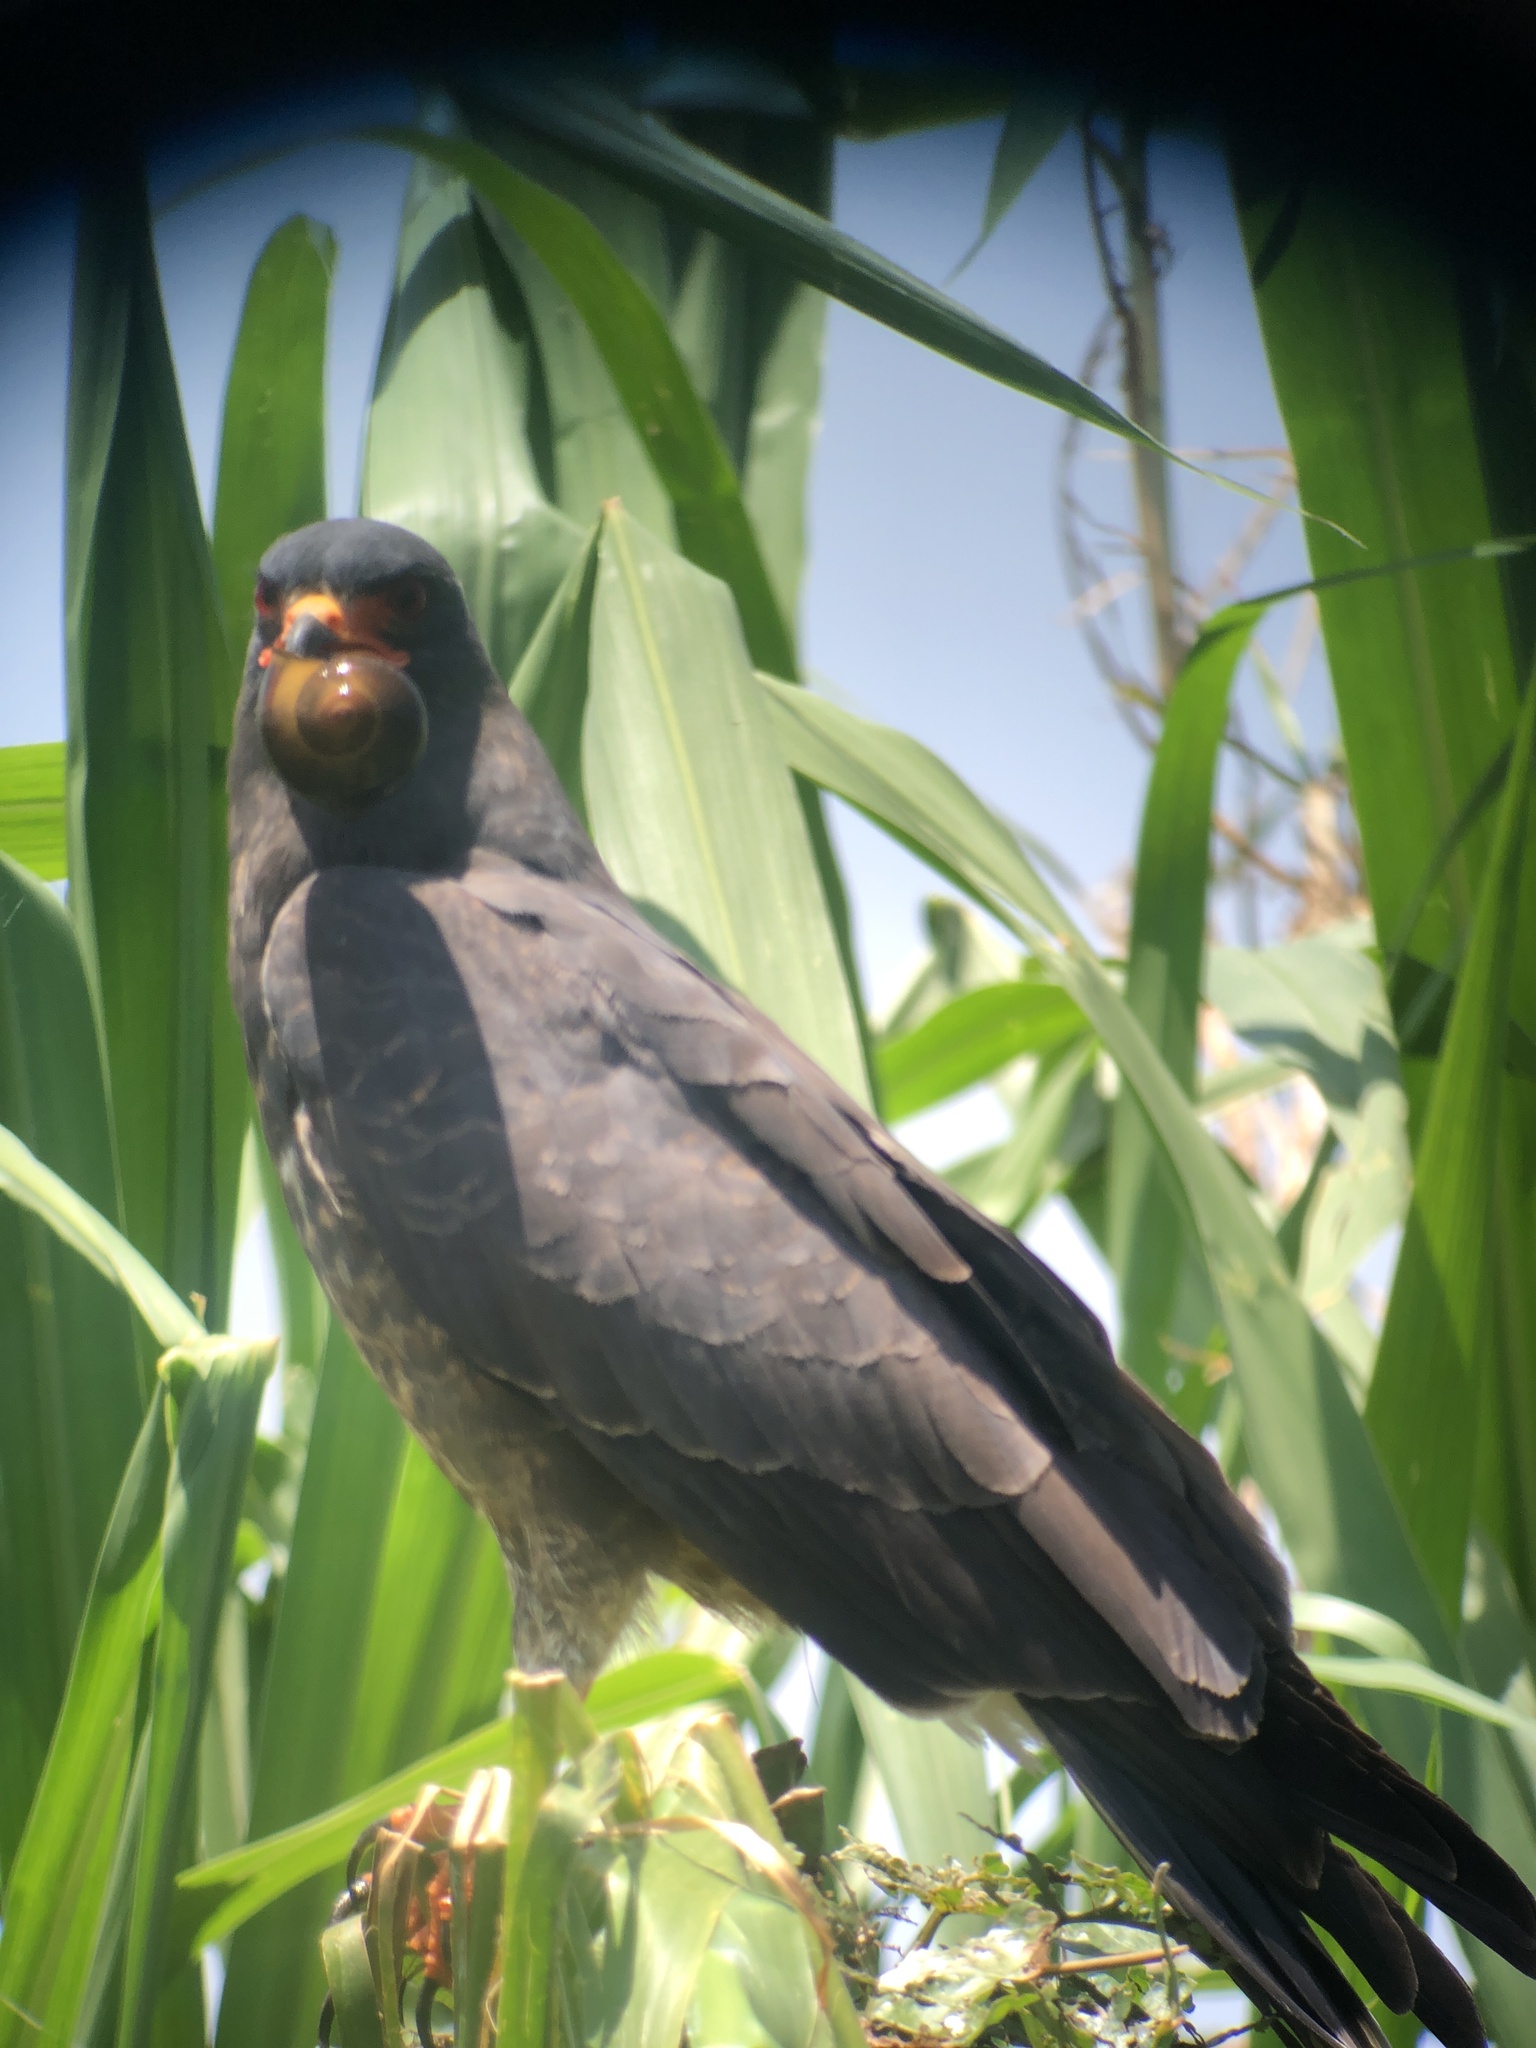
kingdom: Animalia
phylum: Chordata
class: Aves
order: Accipitriformes
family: Accipitridae
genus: Rostrhamus
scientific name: Rostrhamus sociabilis
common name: Snail kite
